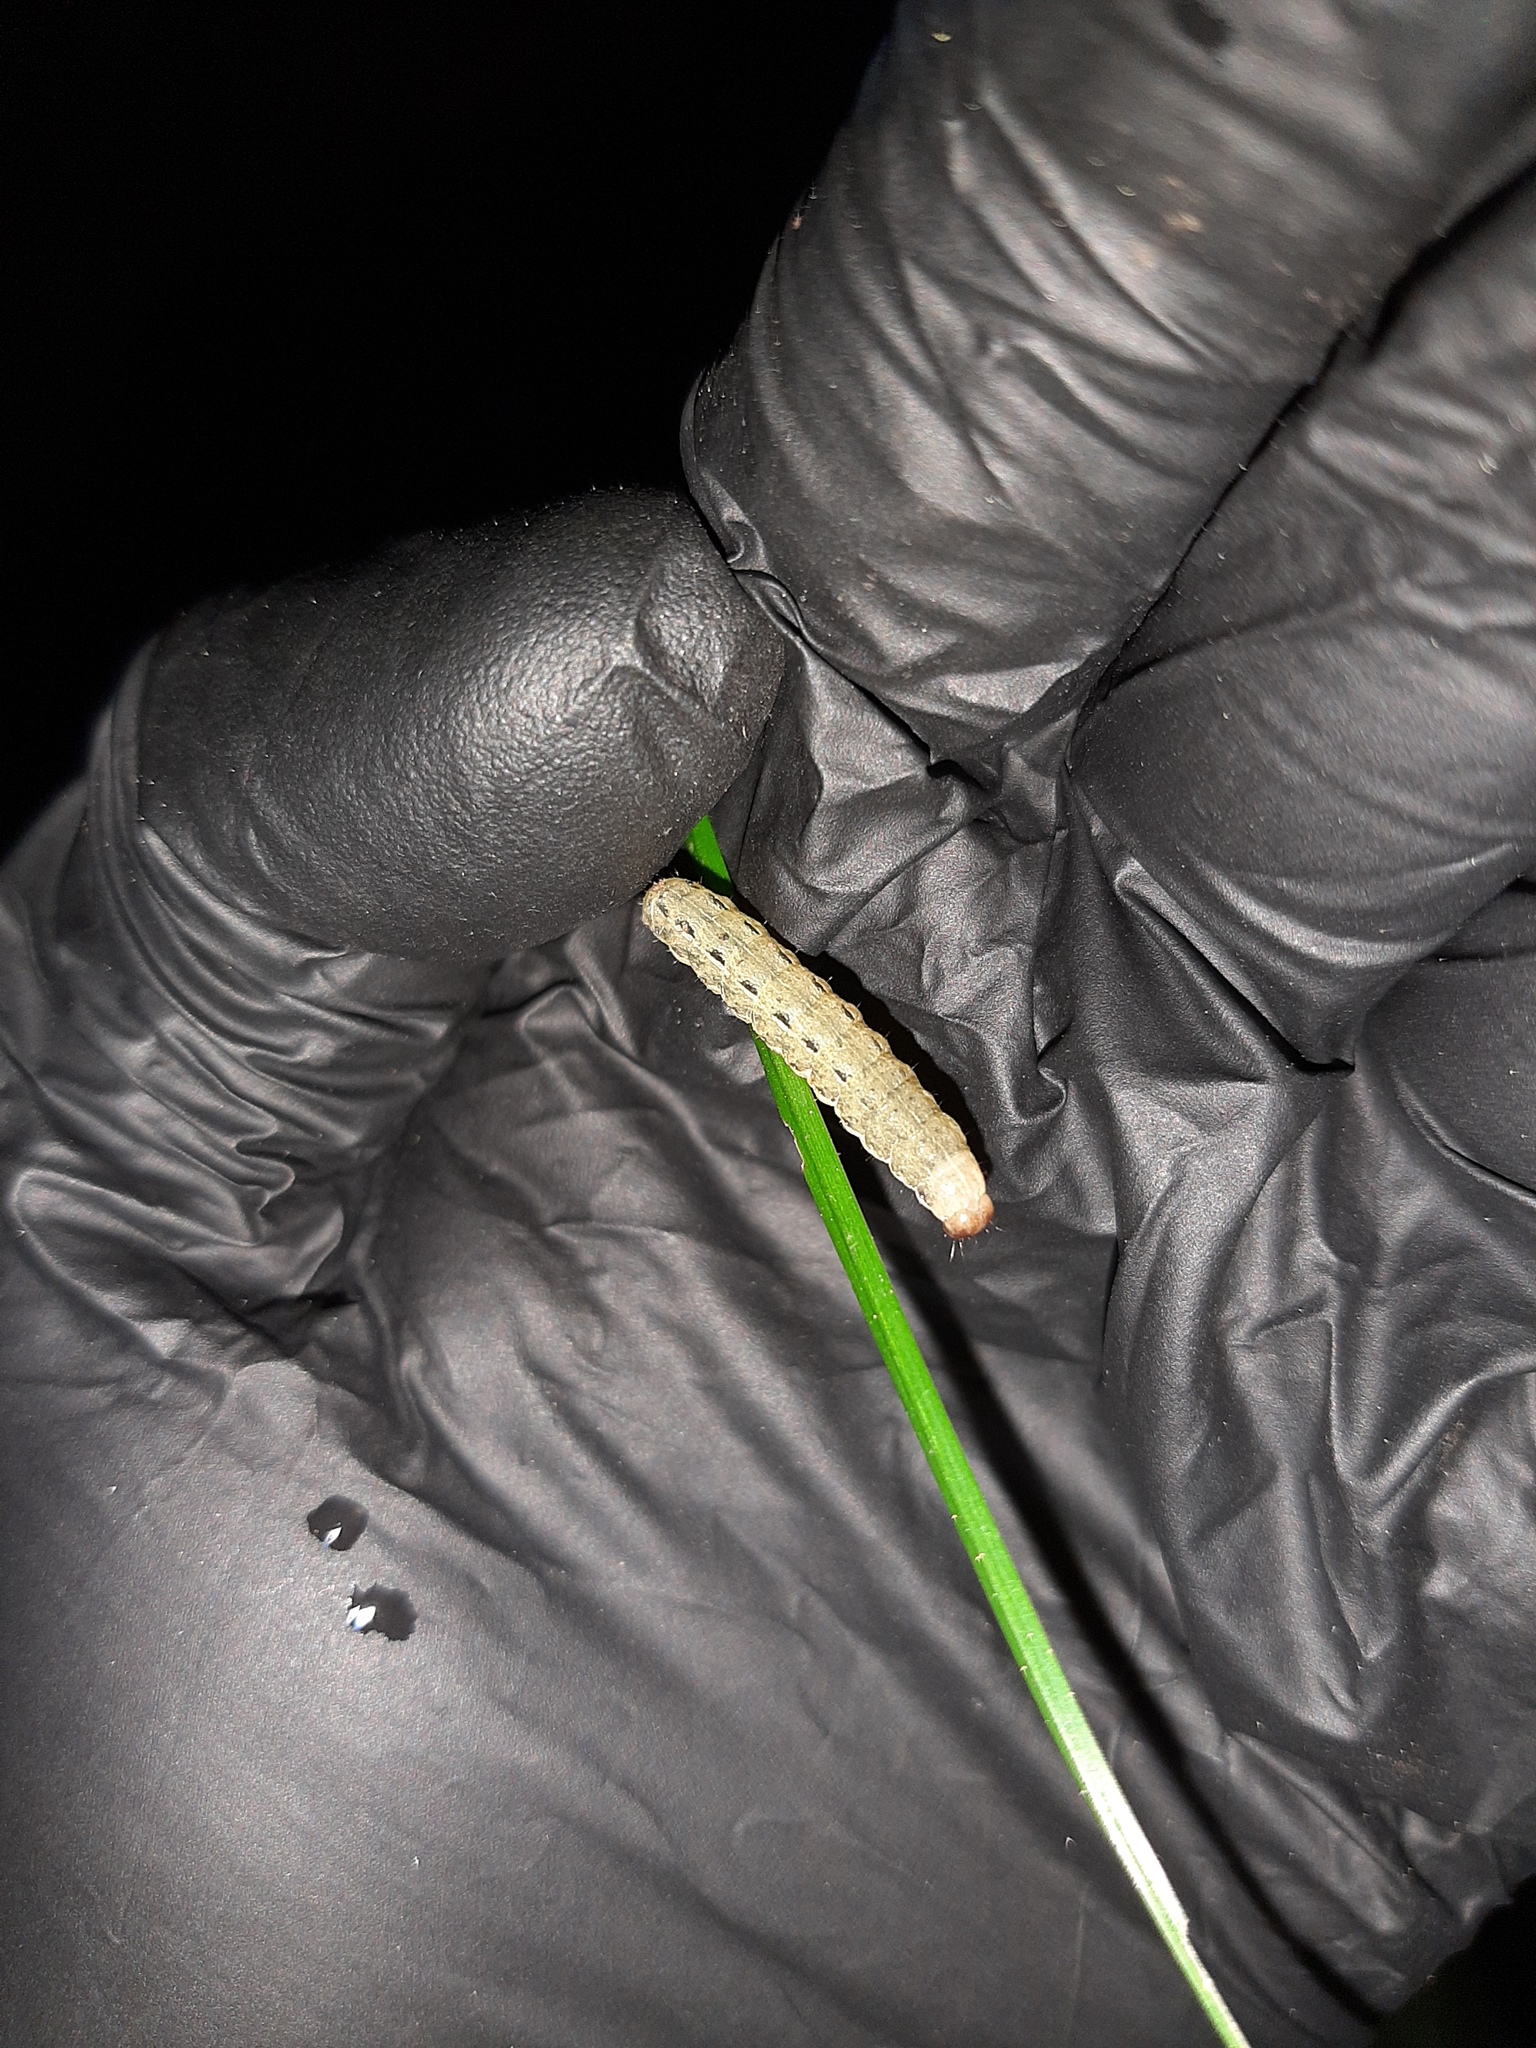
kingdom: Animalia
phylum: Arthropoda
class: Insecta
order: Lepidoptera
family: Noctuidae
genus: Noctua
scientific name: Noctua pronuba
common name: Large yellow underwing
